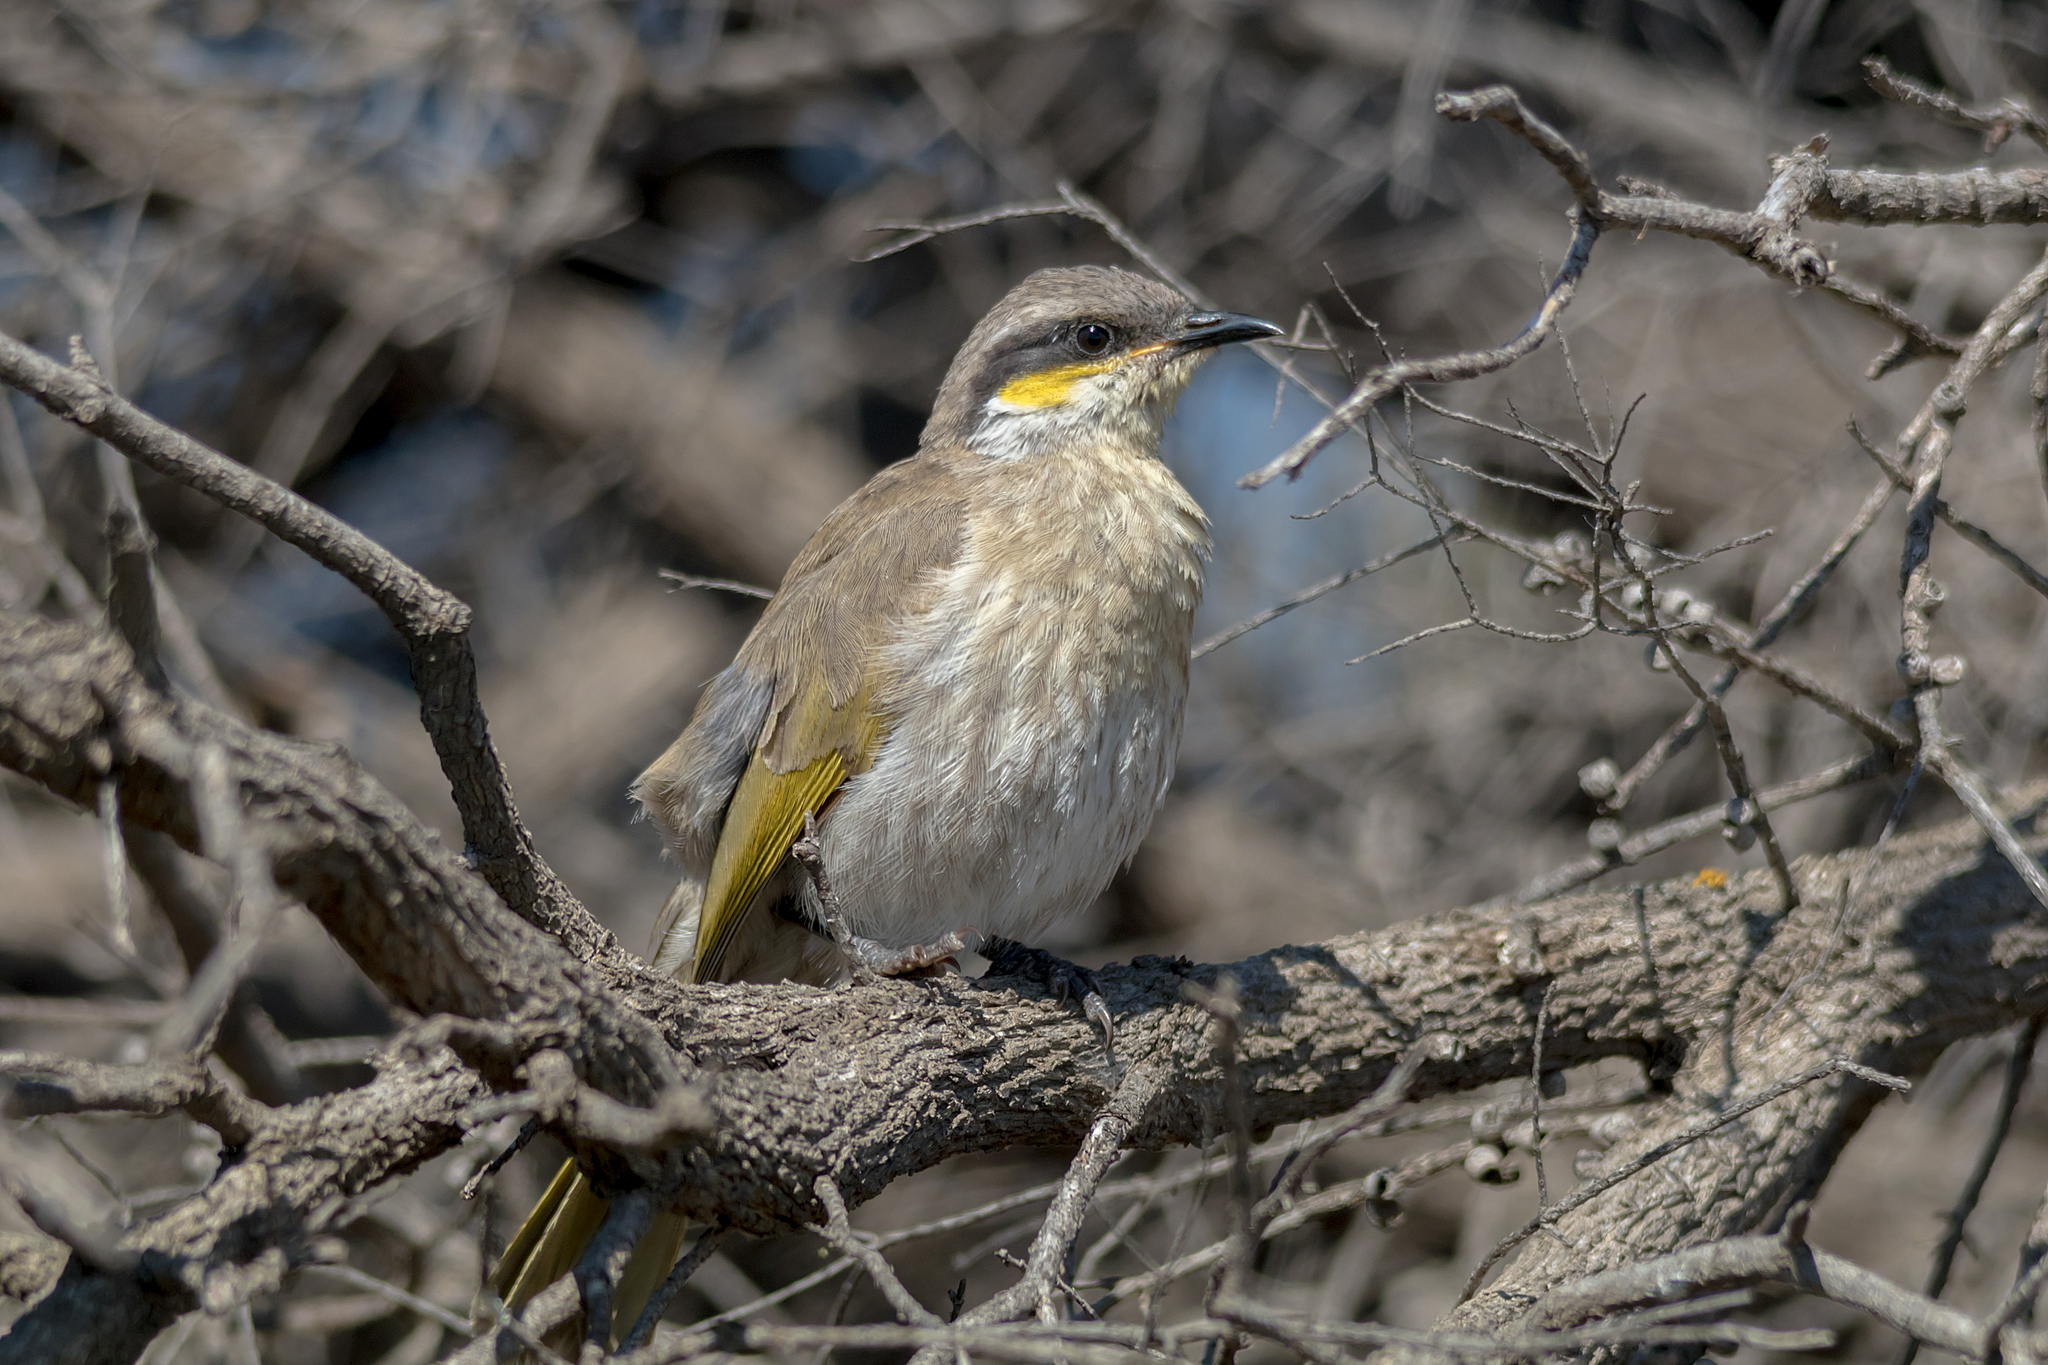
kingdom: Animalia
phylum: Chordata
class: Aves
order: Passeriformes
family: Meliphagidae
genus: Gavicalis
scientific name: Gavicalis virescens
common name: Singing honeyeater
